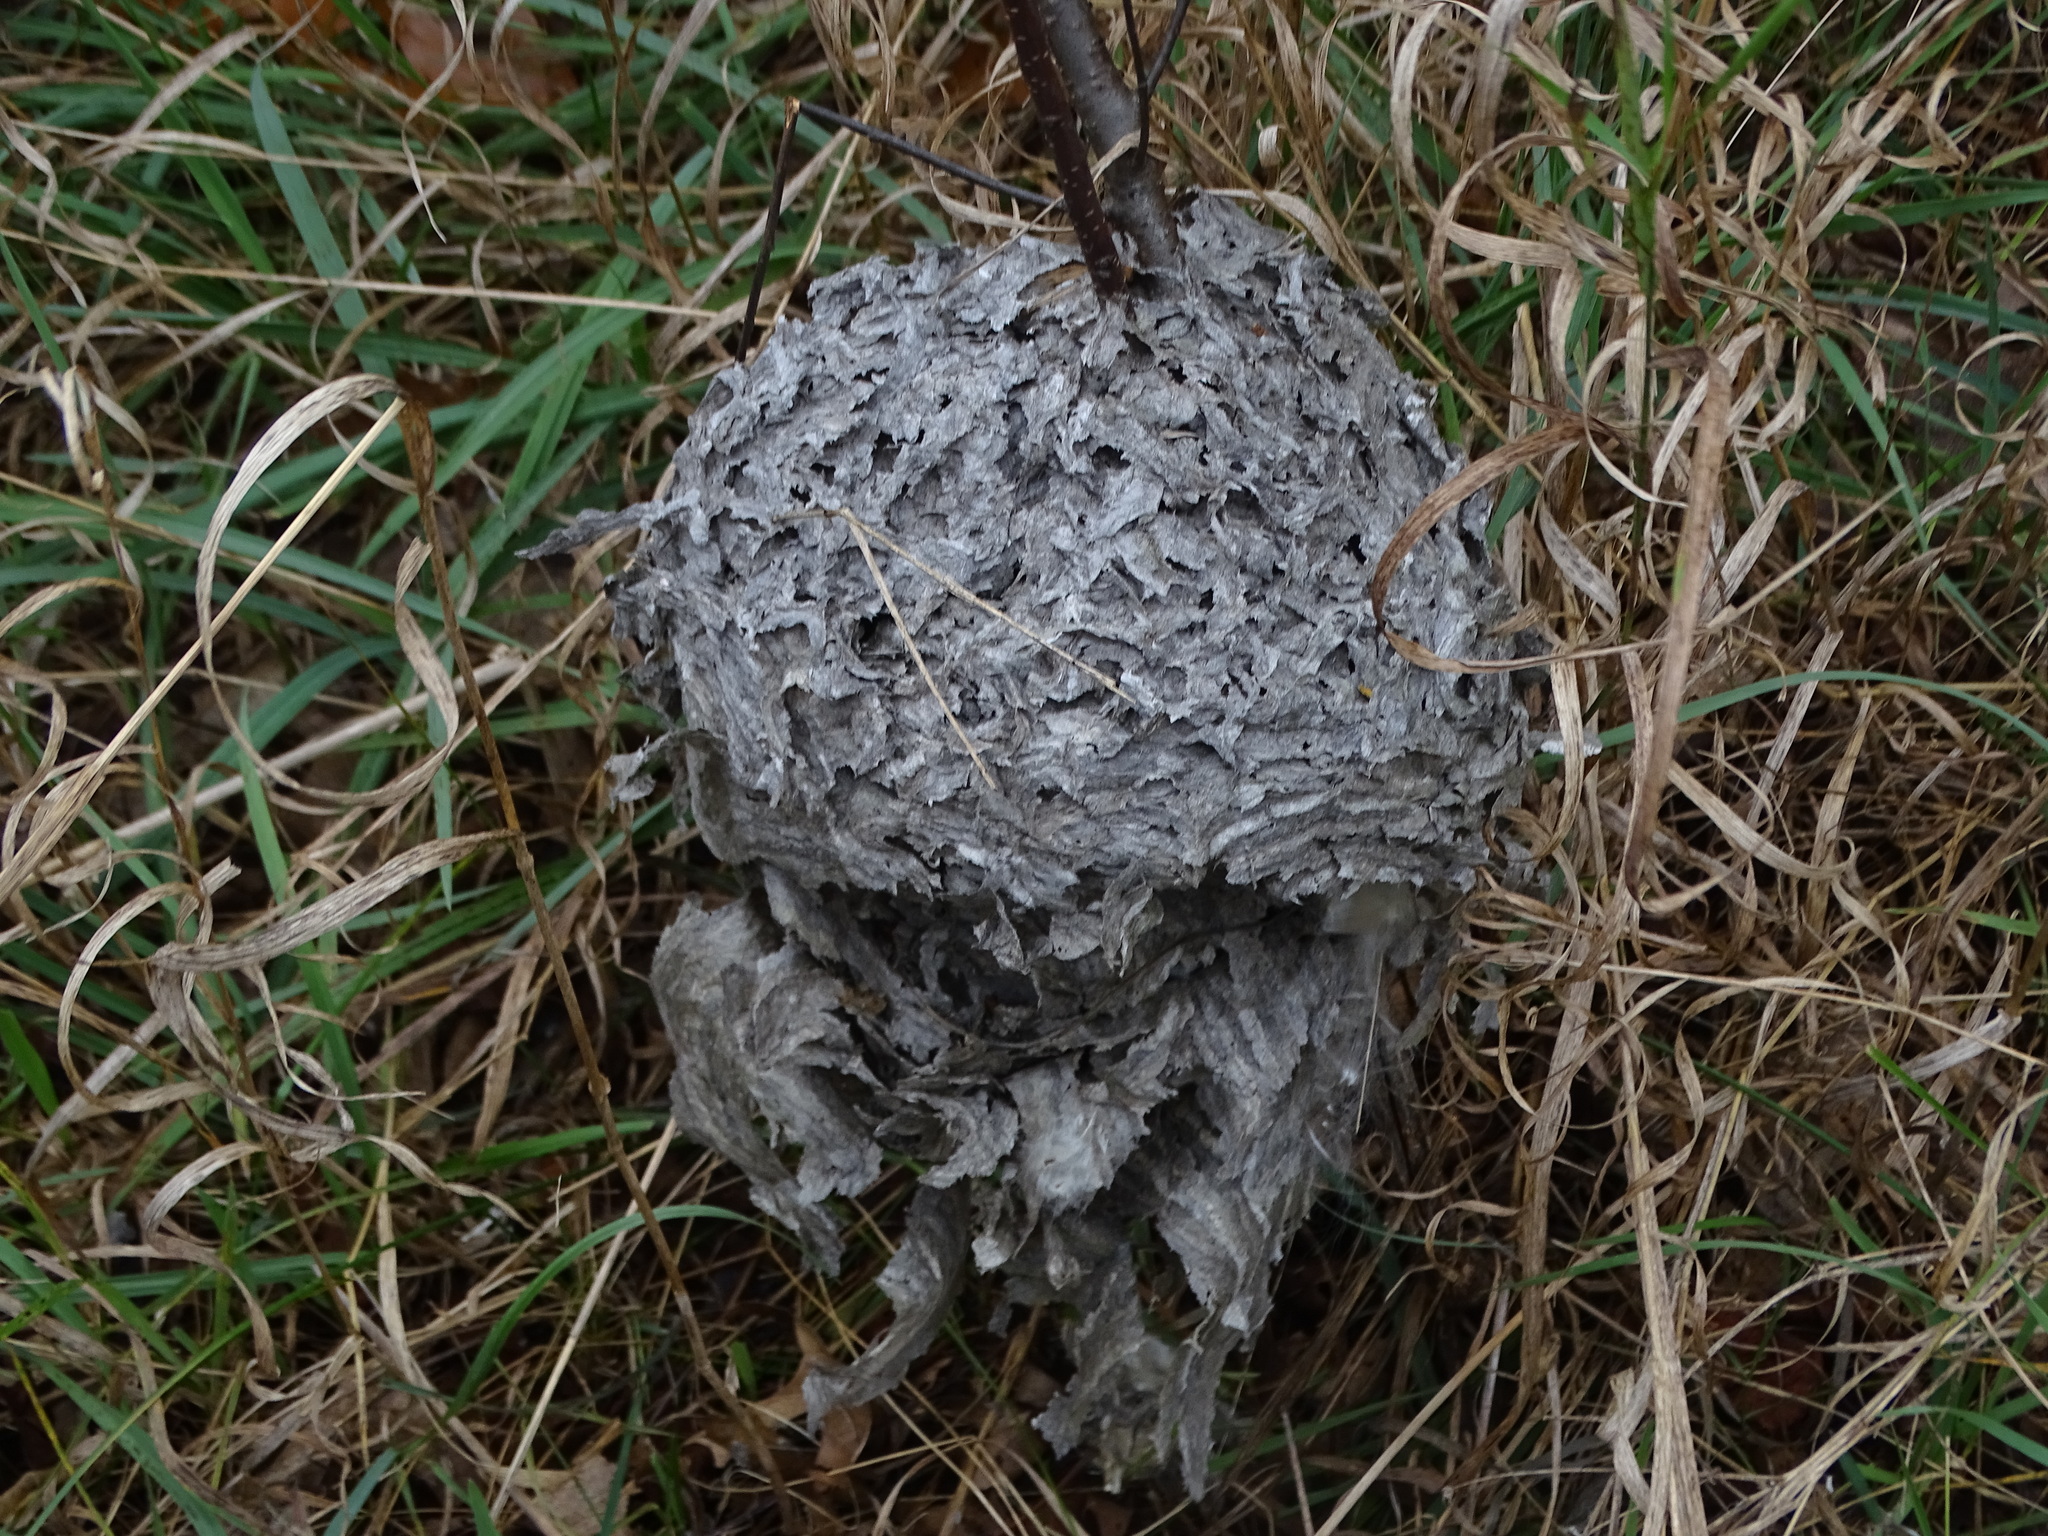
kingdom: Animalia
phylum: Arthropoda
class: Insecta
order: Hymenoptera
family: Vespidae
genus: Dolichovespula
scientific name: Dolichovespula
